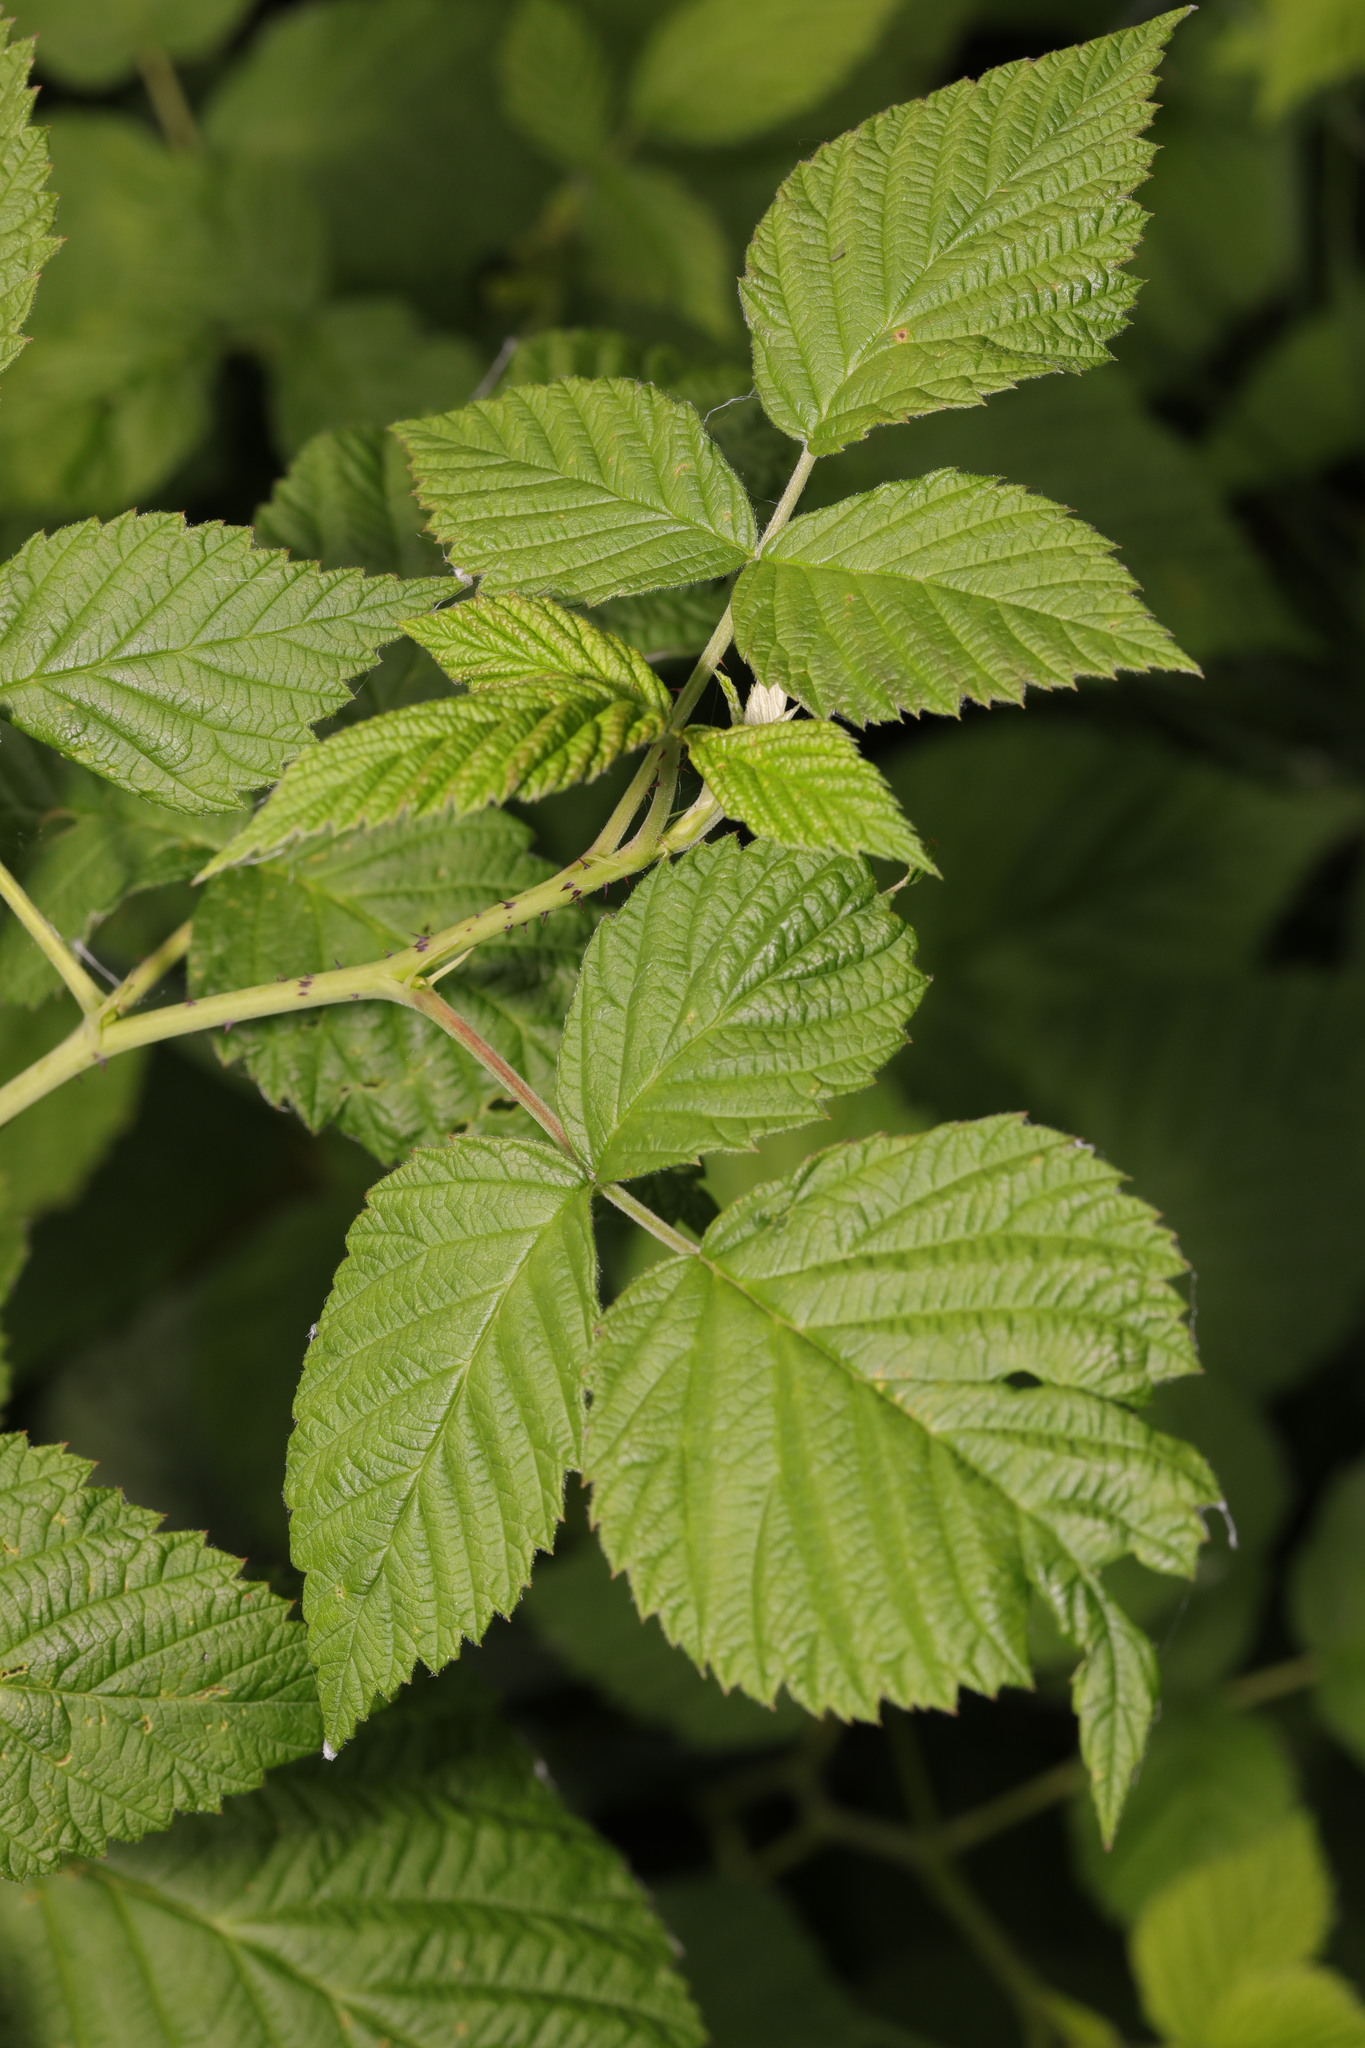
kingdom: Plantae
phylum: Tracheophyta
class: Magnoliopsida
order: Rosales
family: Rosaceae
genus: Rubus
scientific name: Rubus idaeus
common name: Raspberry
